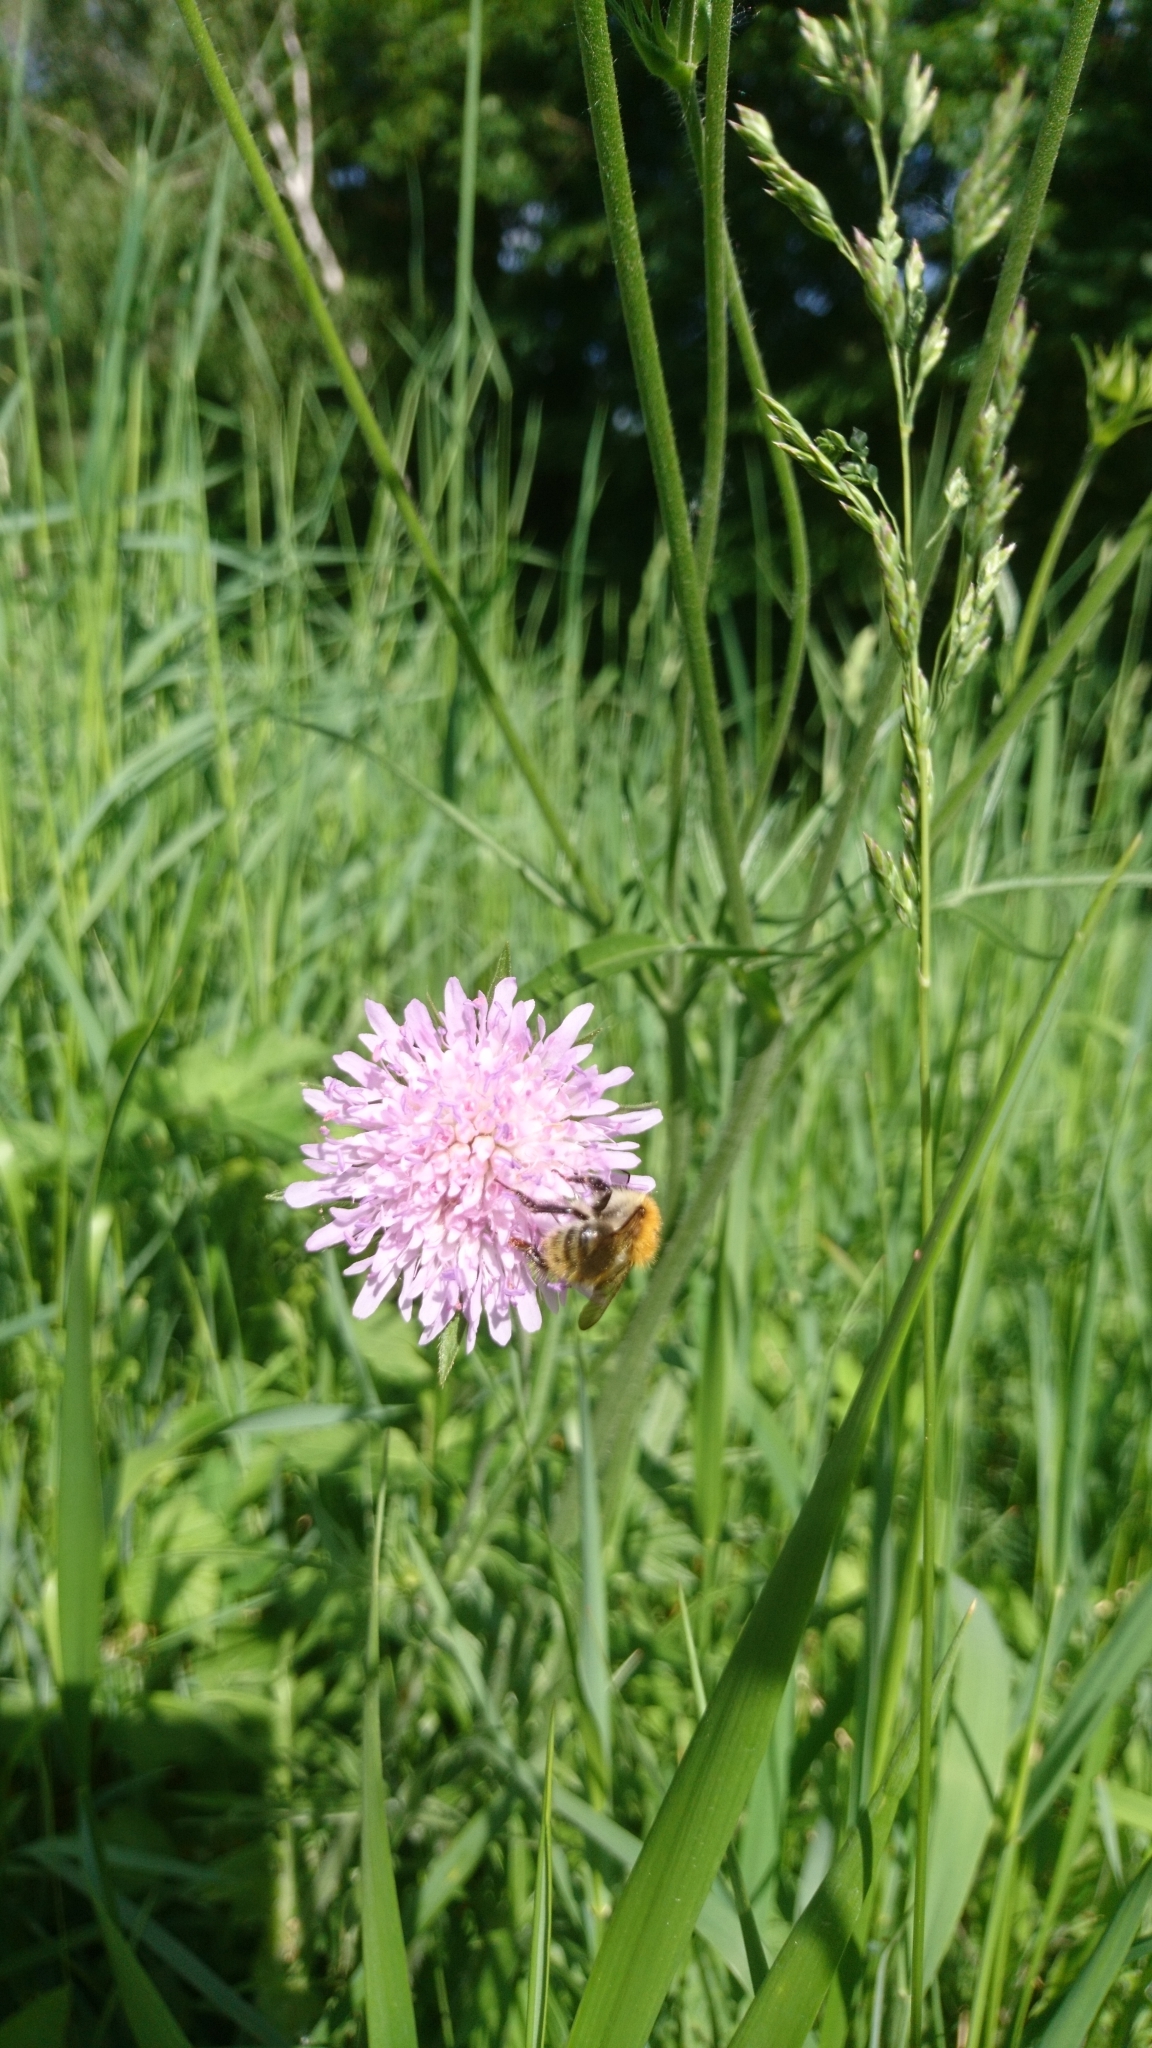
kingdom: Animalia
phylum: Arthropoda
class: Insecta
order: Hymenoptera
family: Apidae
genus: Bombus
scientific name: Bombus pascuorum
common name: Common carder bee
